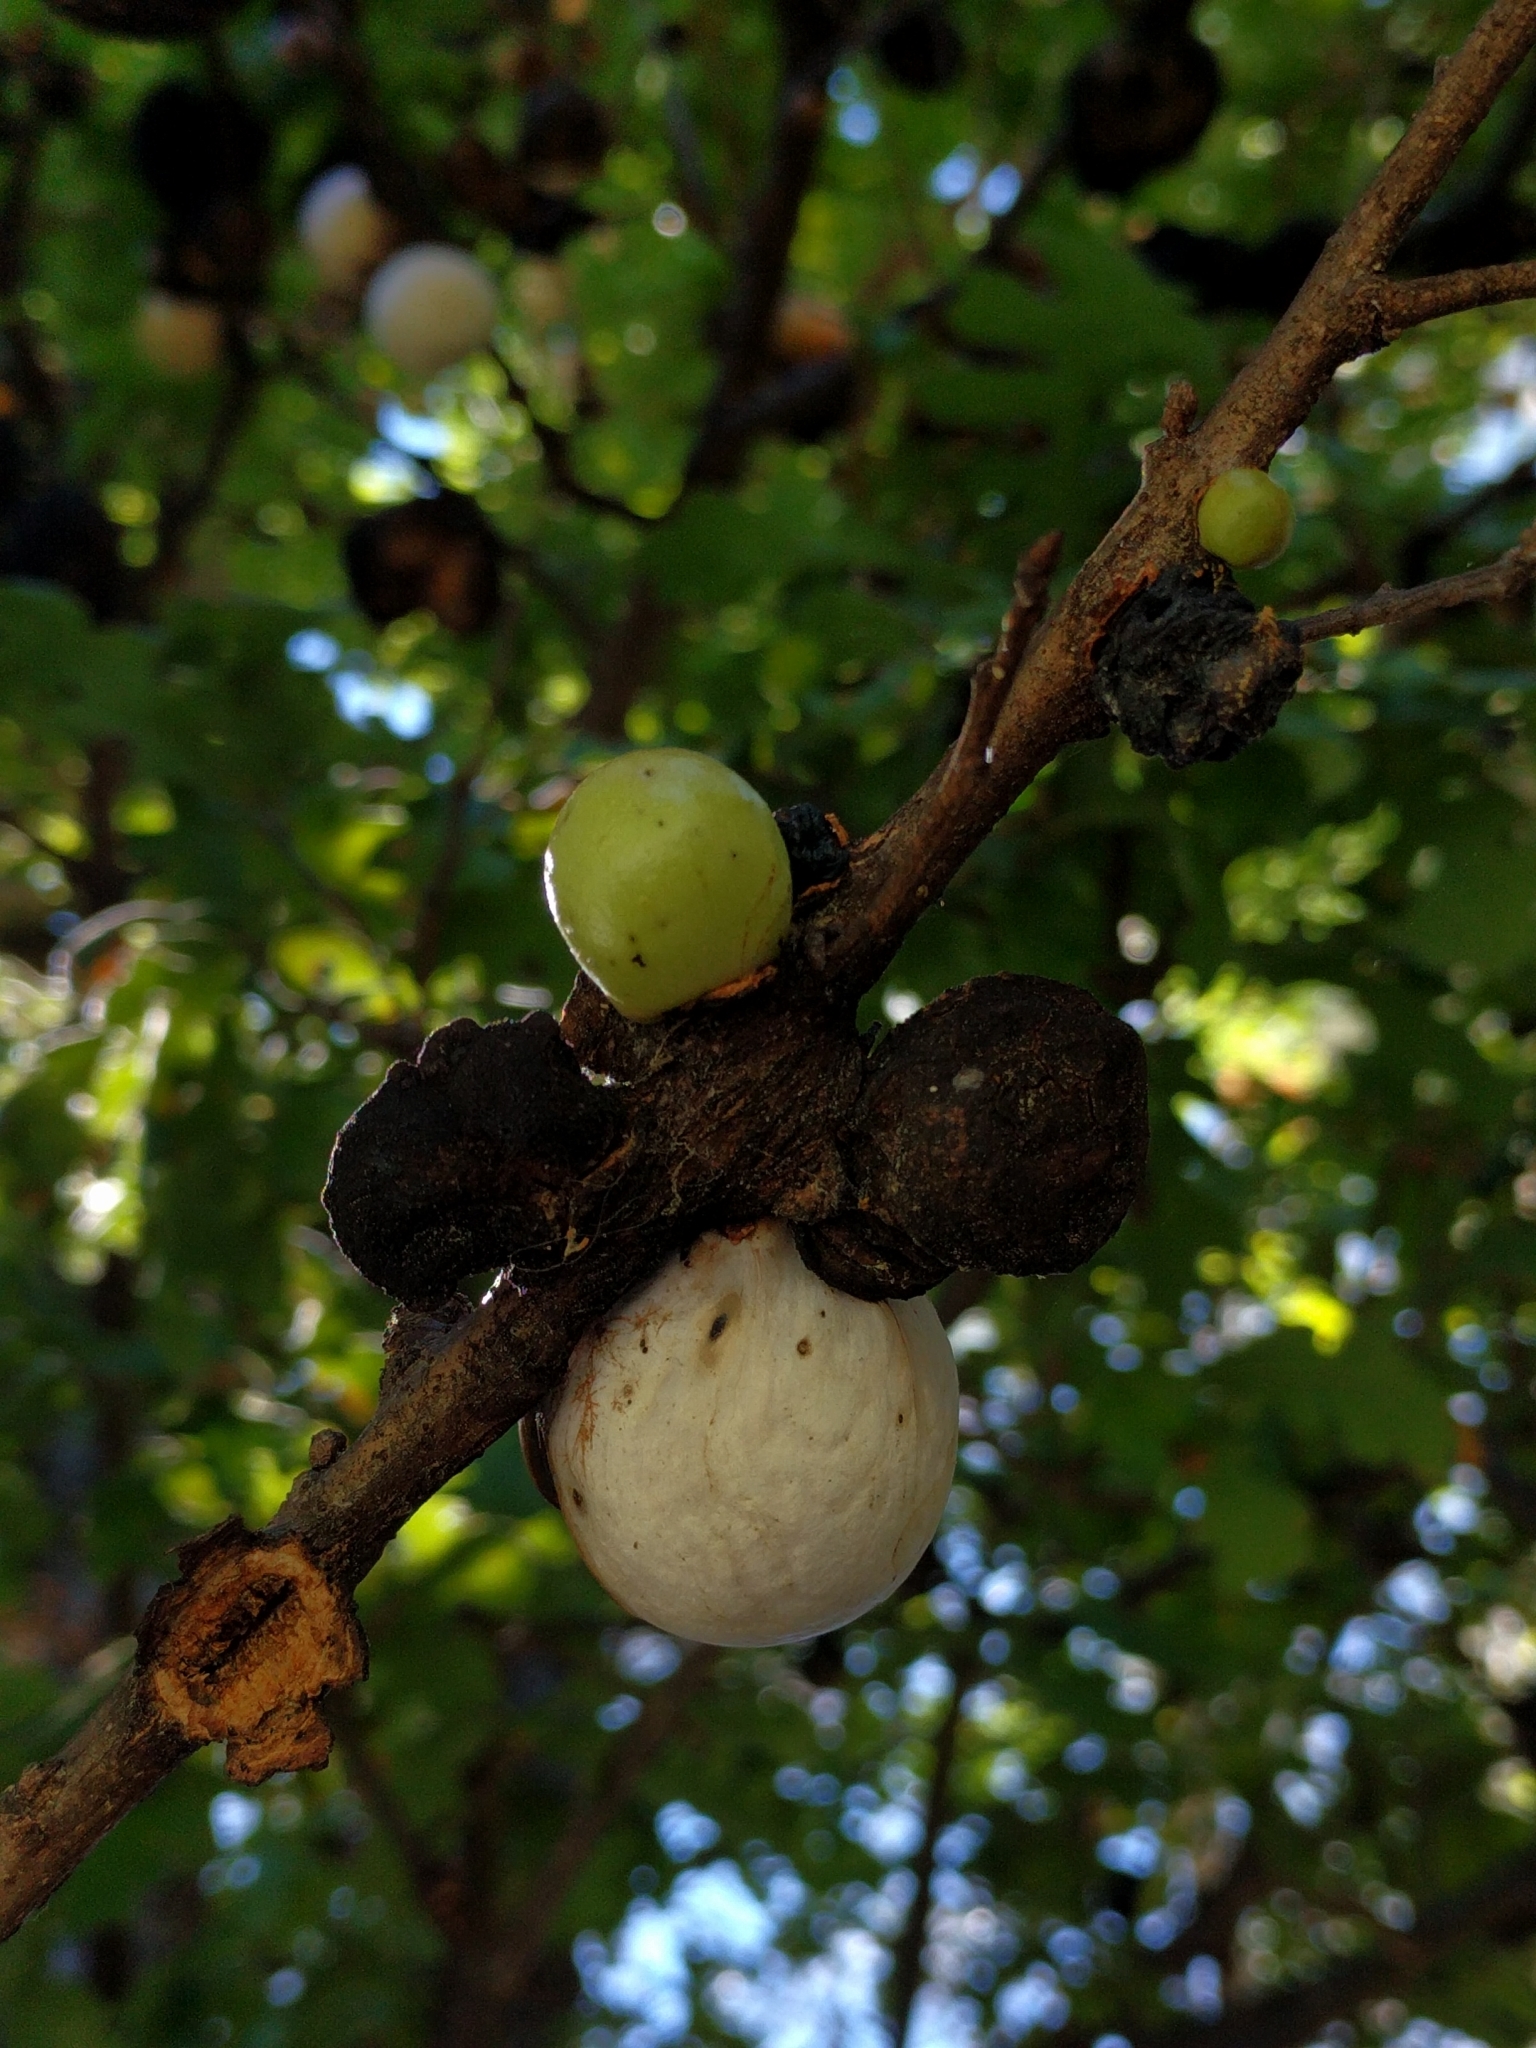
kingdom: Animalia
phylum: Arthropoda
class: Insecta
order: Hymenoptera
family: Cynipidae
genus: Andricus
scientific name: Andricus quercuscalifornicus
